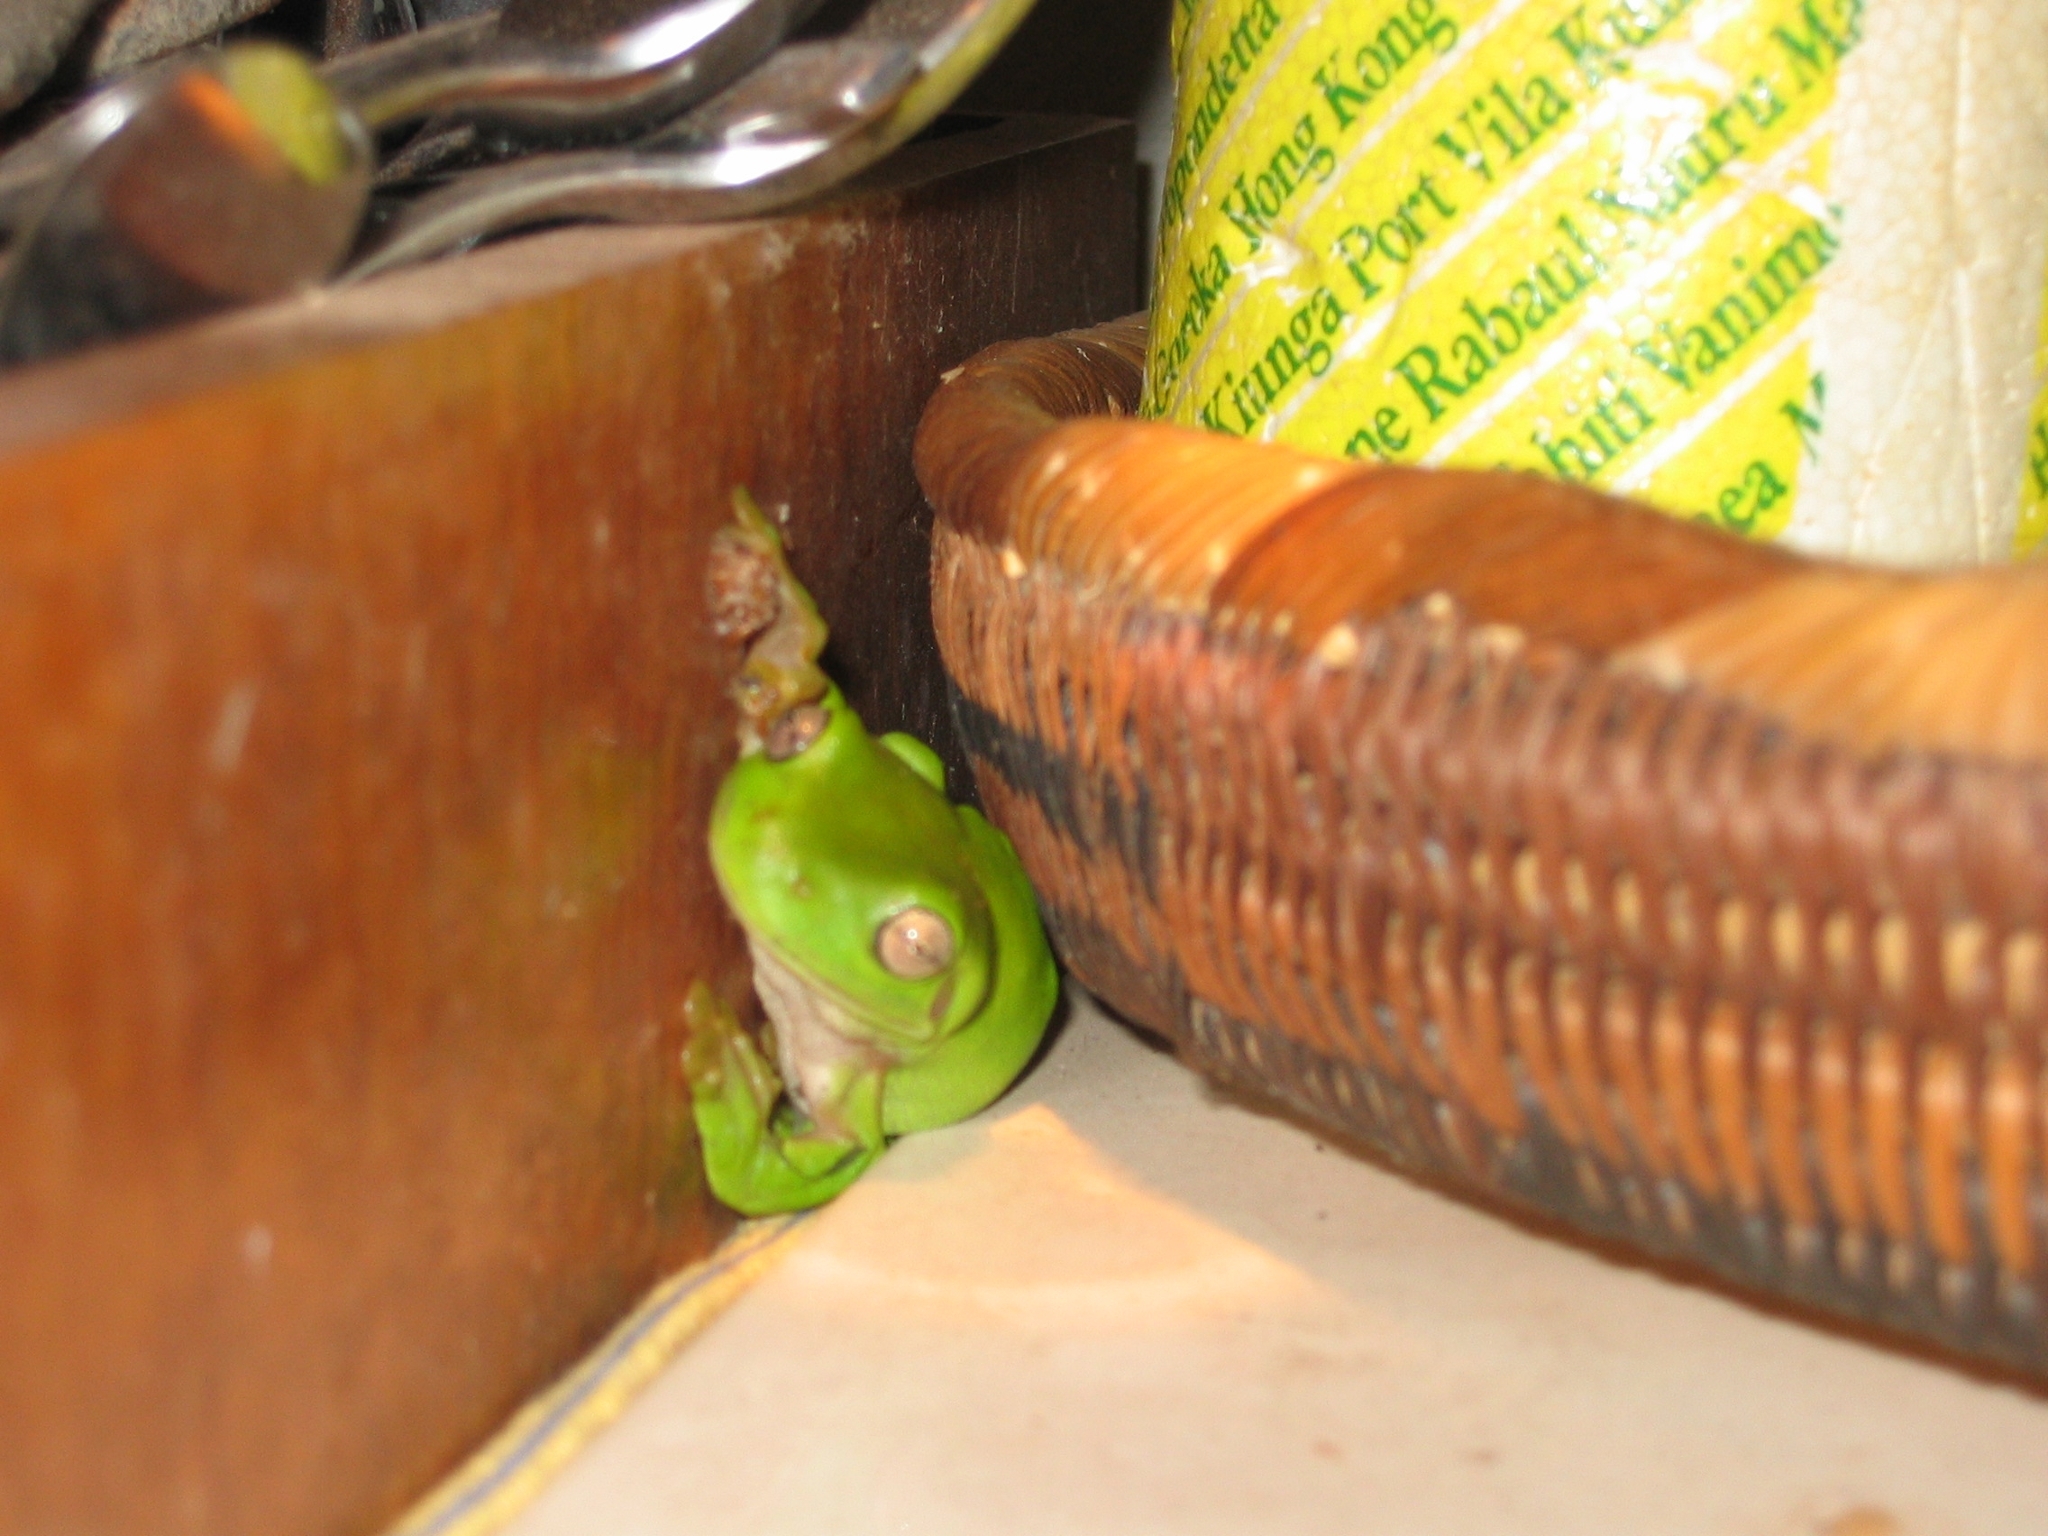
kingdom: Animalia
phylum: Chordata
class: Amphibia
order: Anura
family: Pelodryadidae
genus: Ranoidea
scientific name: Ranoidea caerulea
